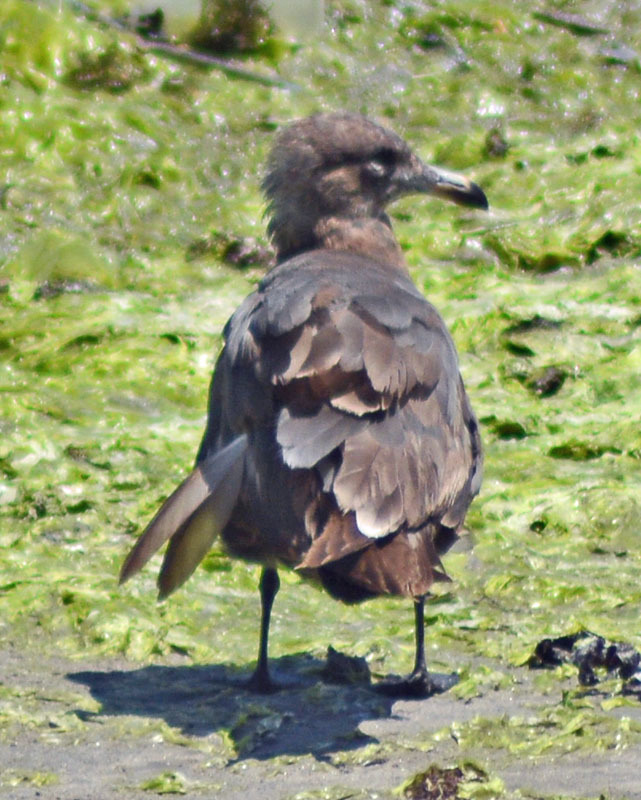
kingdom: Animalia
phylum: Chordata
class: Aves
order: Charadriiformes
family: Laridae
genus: Larus
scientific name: Larus heermanni
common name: Heermann's gull
